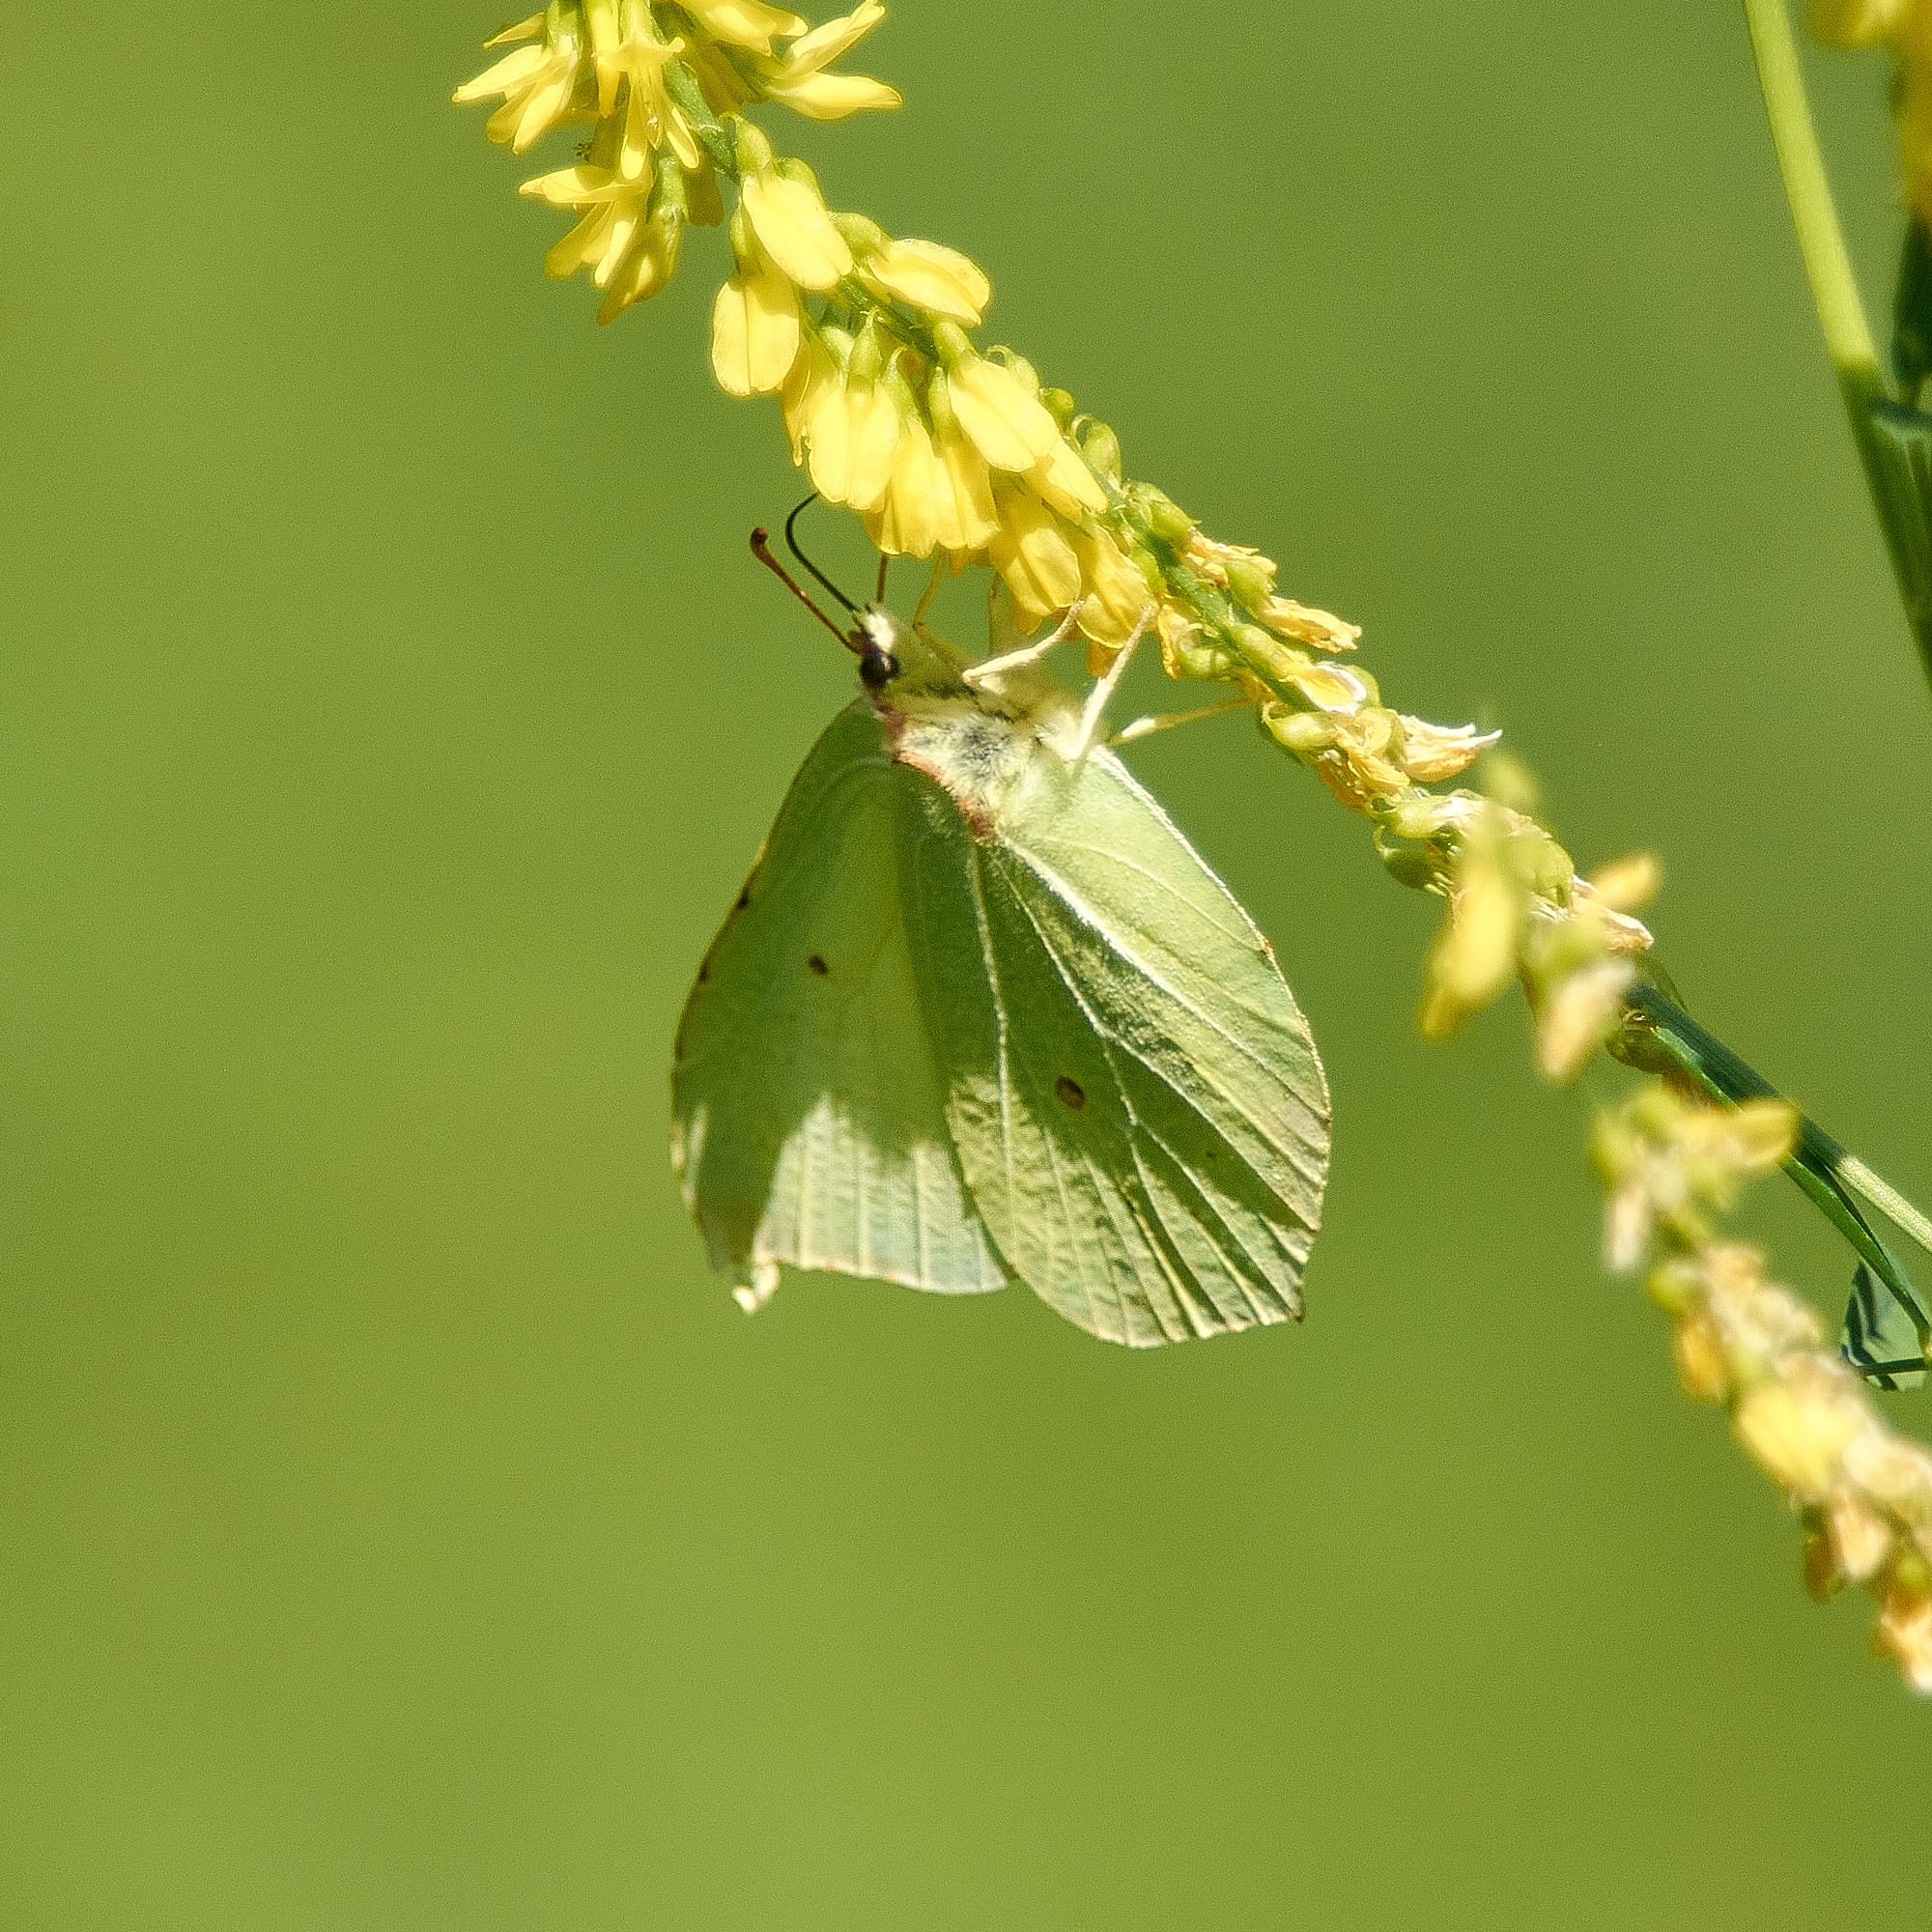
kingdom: Animalia
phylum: Arthropoda
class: Insecta
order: Lepidoptera
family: Pieridae
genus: Gonepteryx
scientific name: Gonepteryx rhamni
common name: Brimstone
